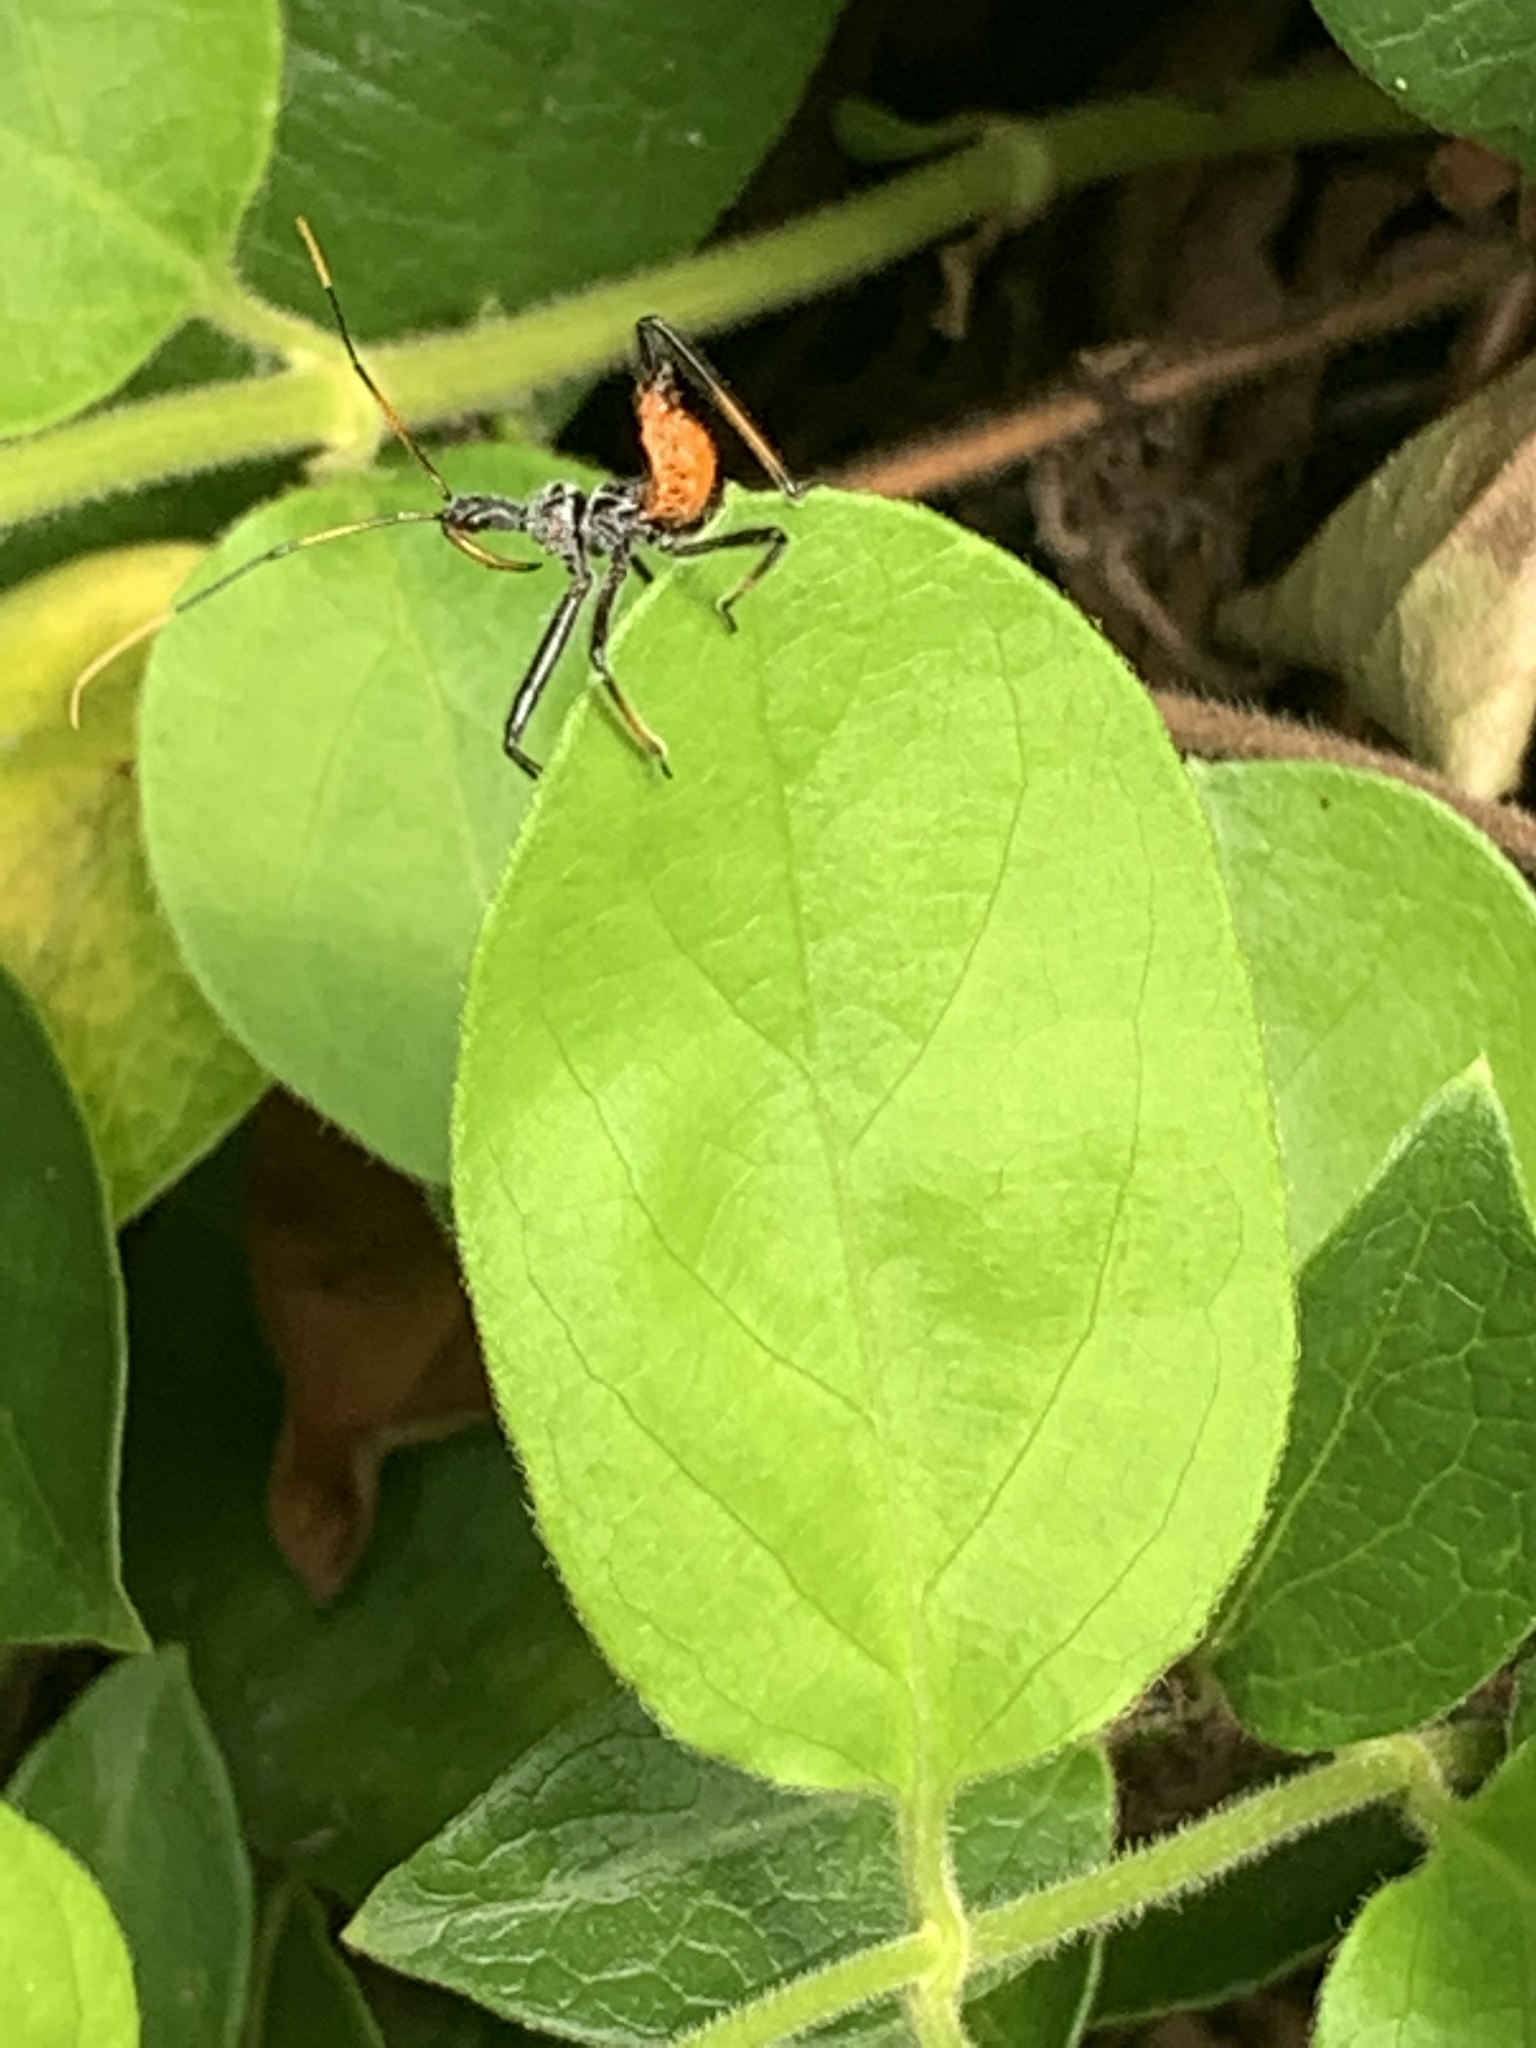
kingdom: Animalia
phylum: Arthropoda
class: Insecta
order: Hemiptera
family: Reduviidae
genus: Arilus
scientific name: Arilus cristatus
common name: North american wheel bug
